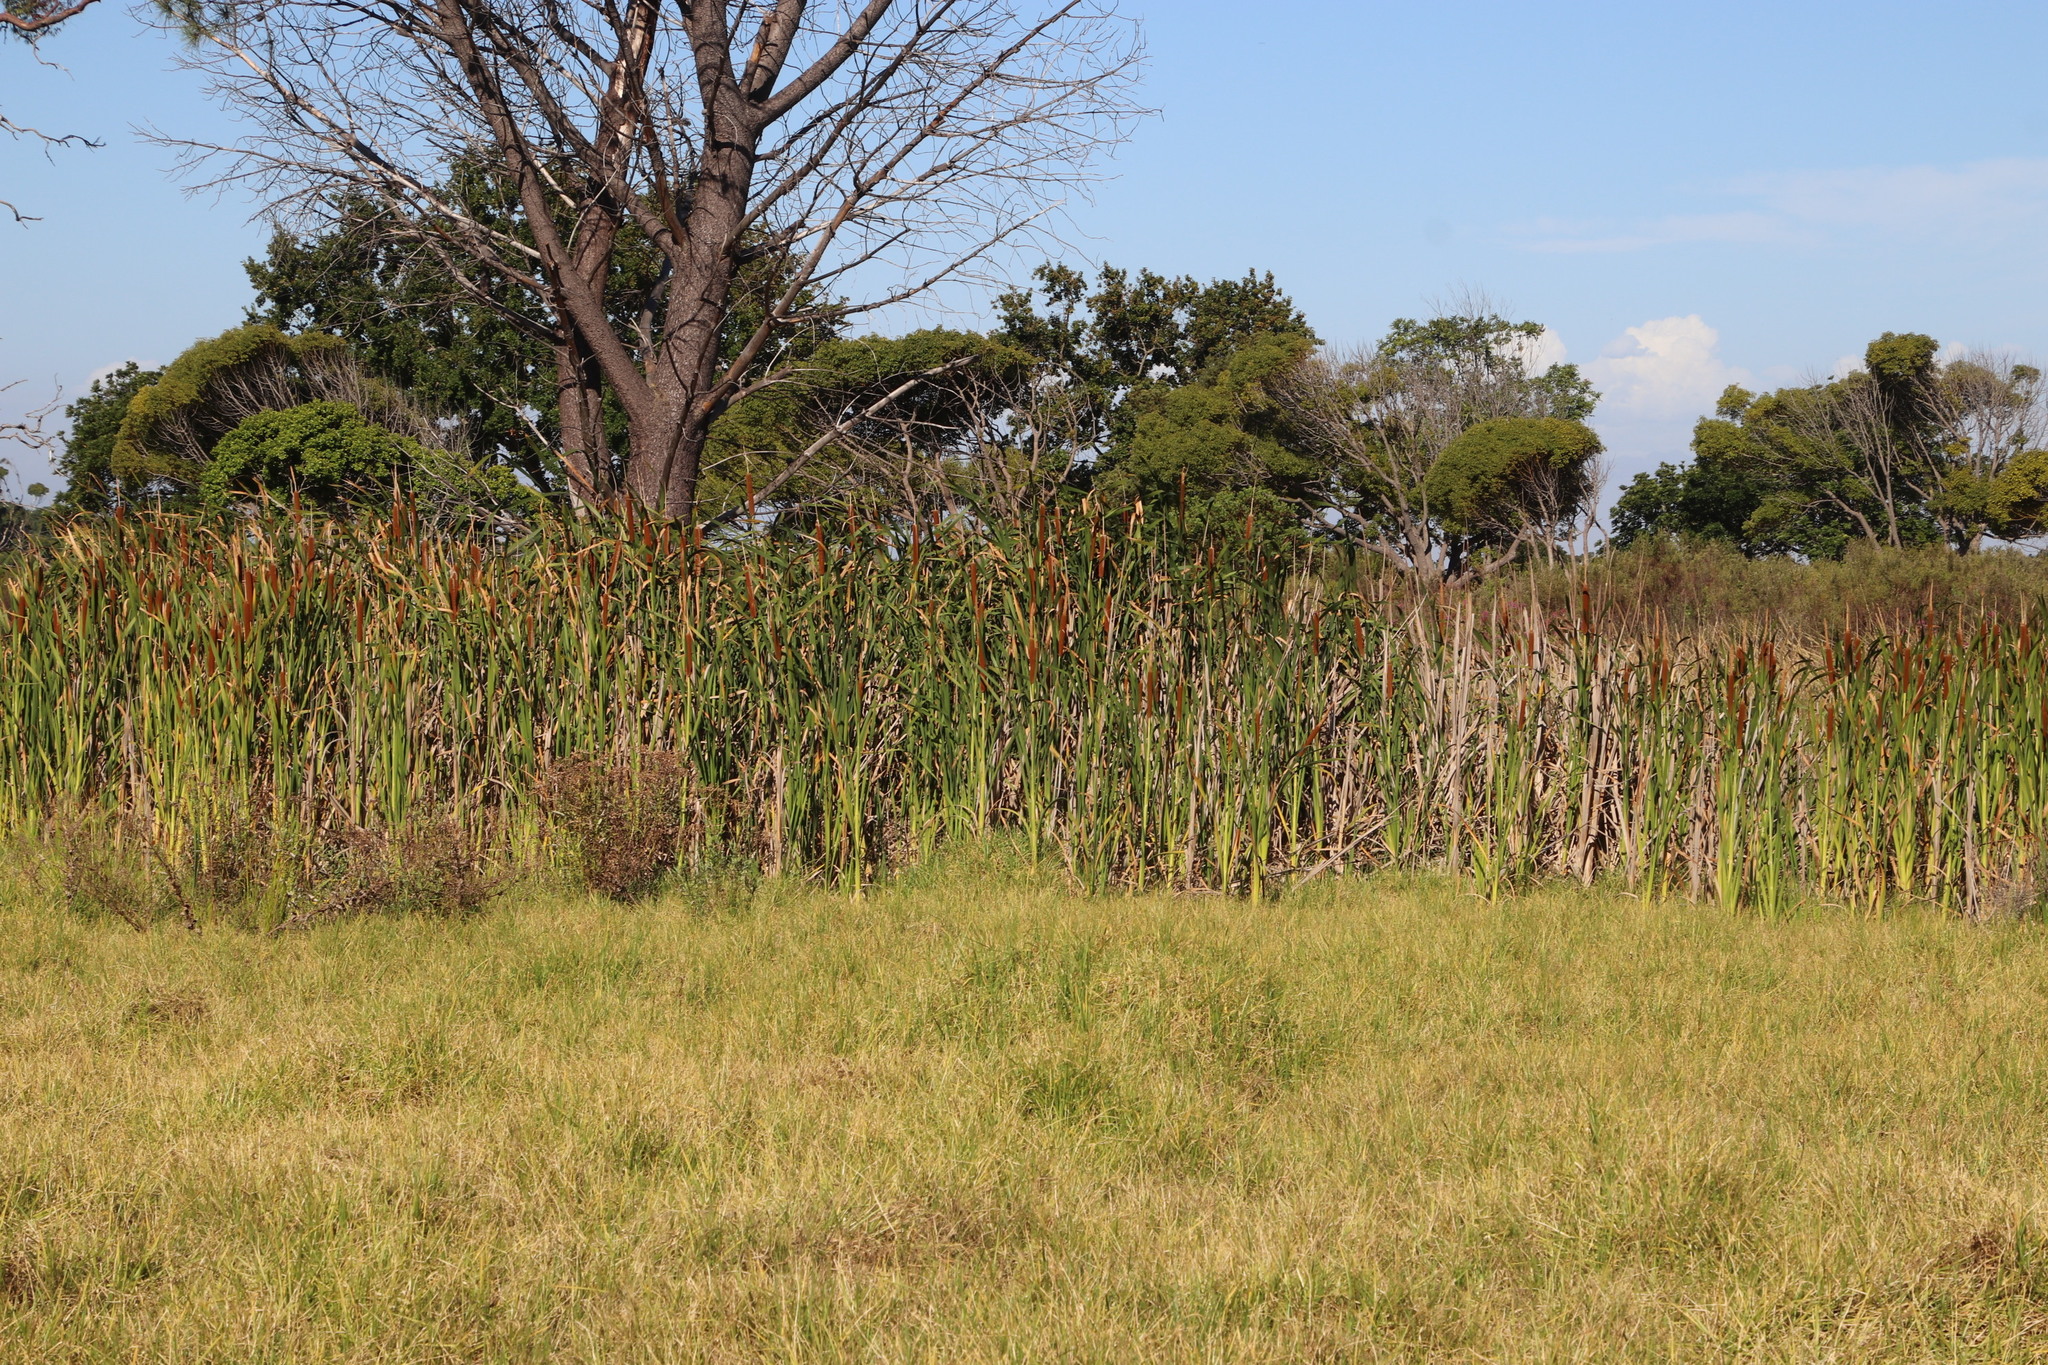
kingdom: Plantae
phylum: Tracheophyta
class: Liliopsida
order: Poales
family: Typhaceae
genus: Typha
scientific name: Typha capensis
